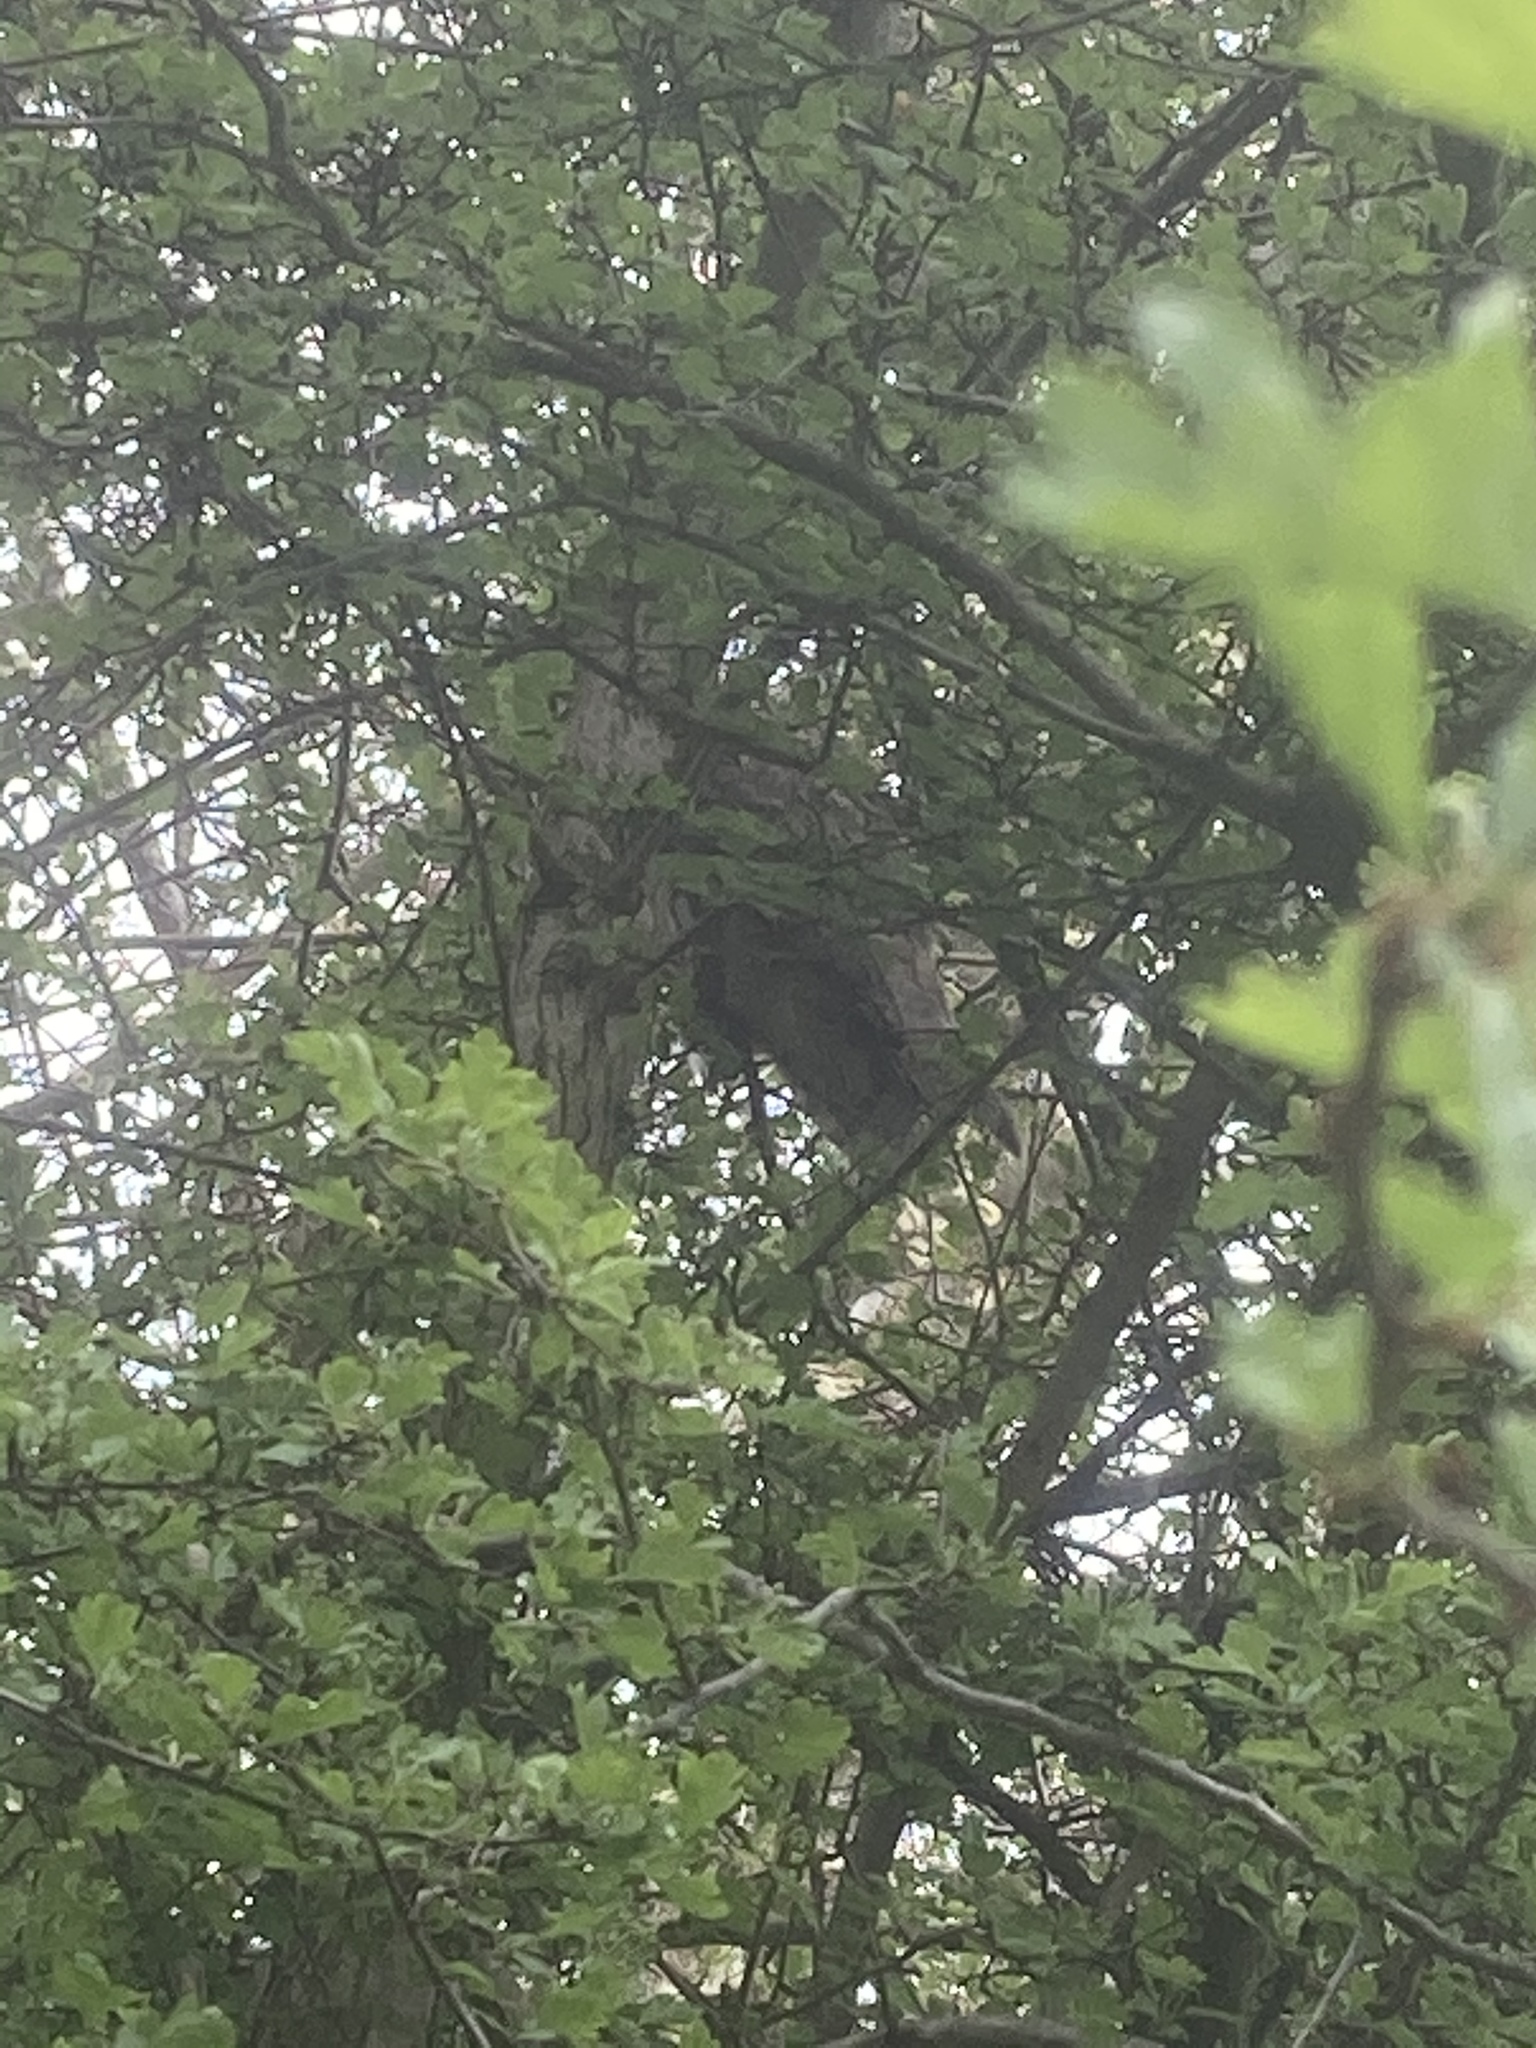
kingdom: Animalia
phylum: Chordata
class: Aves
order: Strigiformes
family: Strigidae
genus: Asio
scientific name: Asio otus
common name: Long-eared owl
